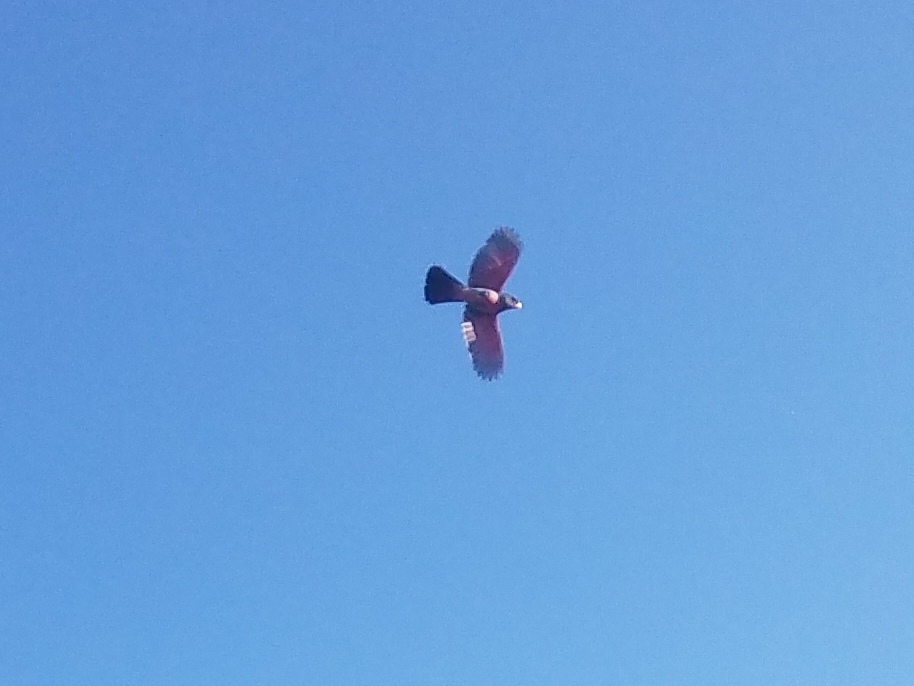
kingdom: Animalia
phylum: Chordata
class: Aves
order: Passeriformes
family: Cardinalidae
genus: Cardinalis
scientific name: Cardinalis sinuatus
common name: Pyrrhuloxia
